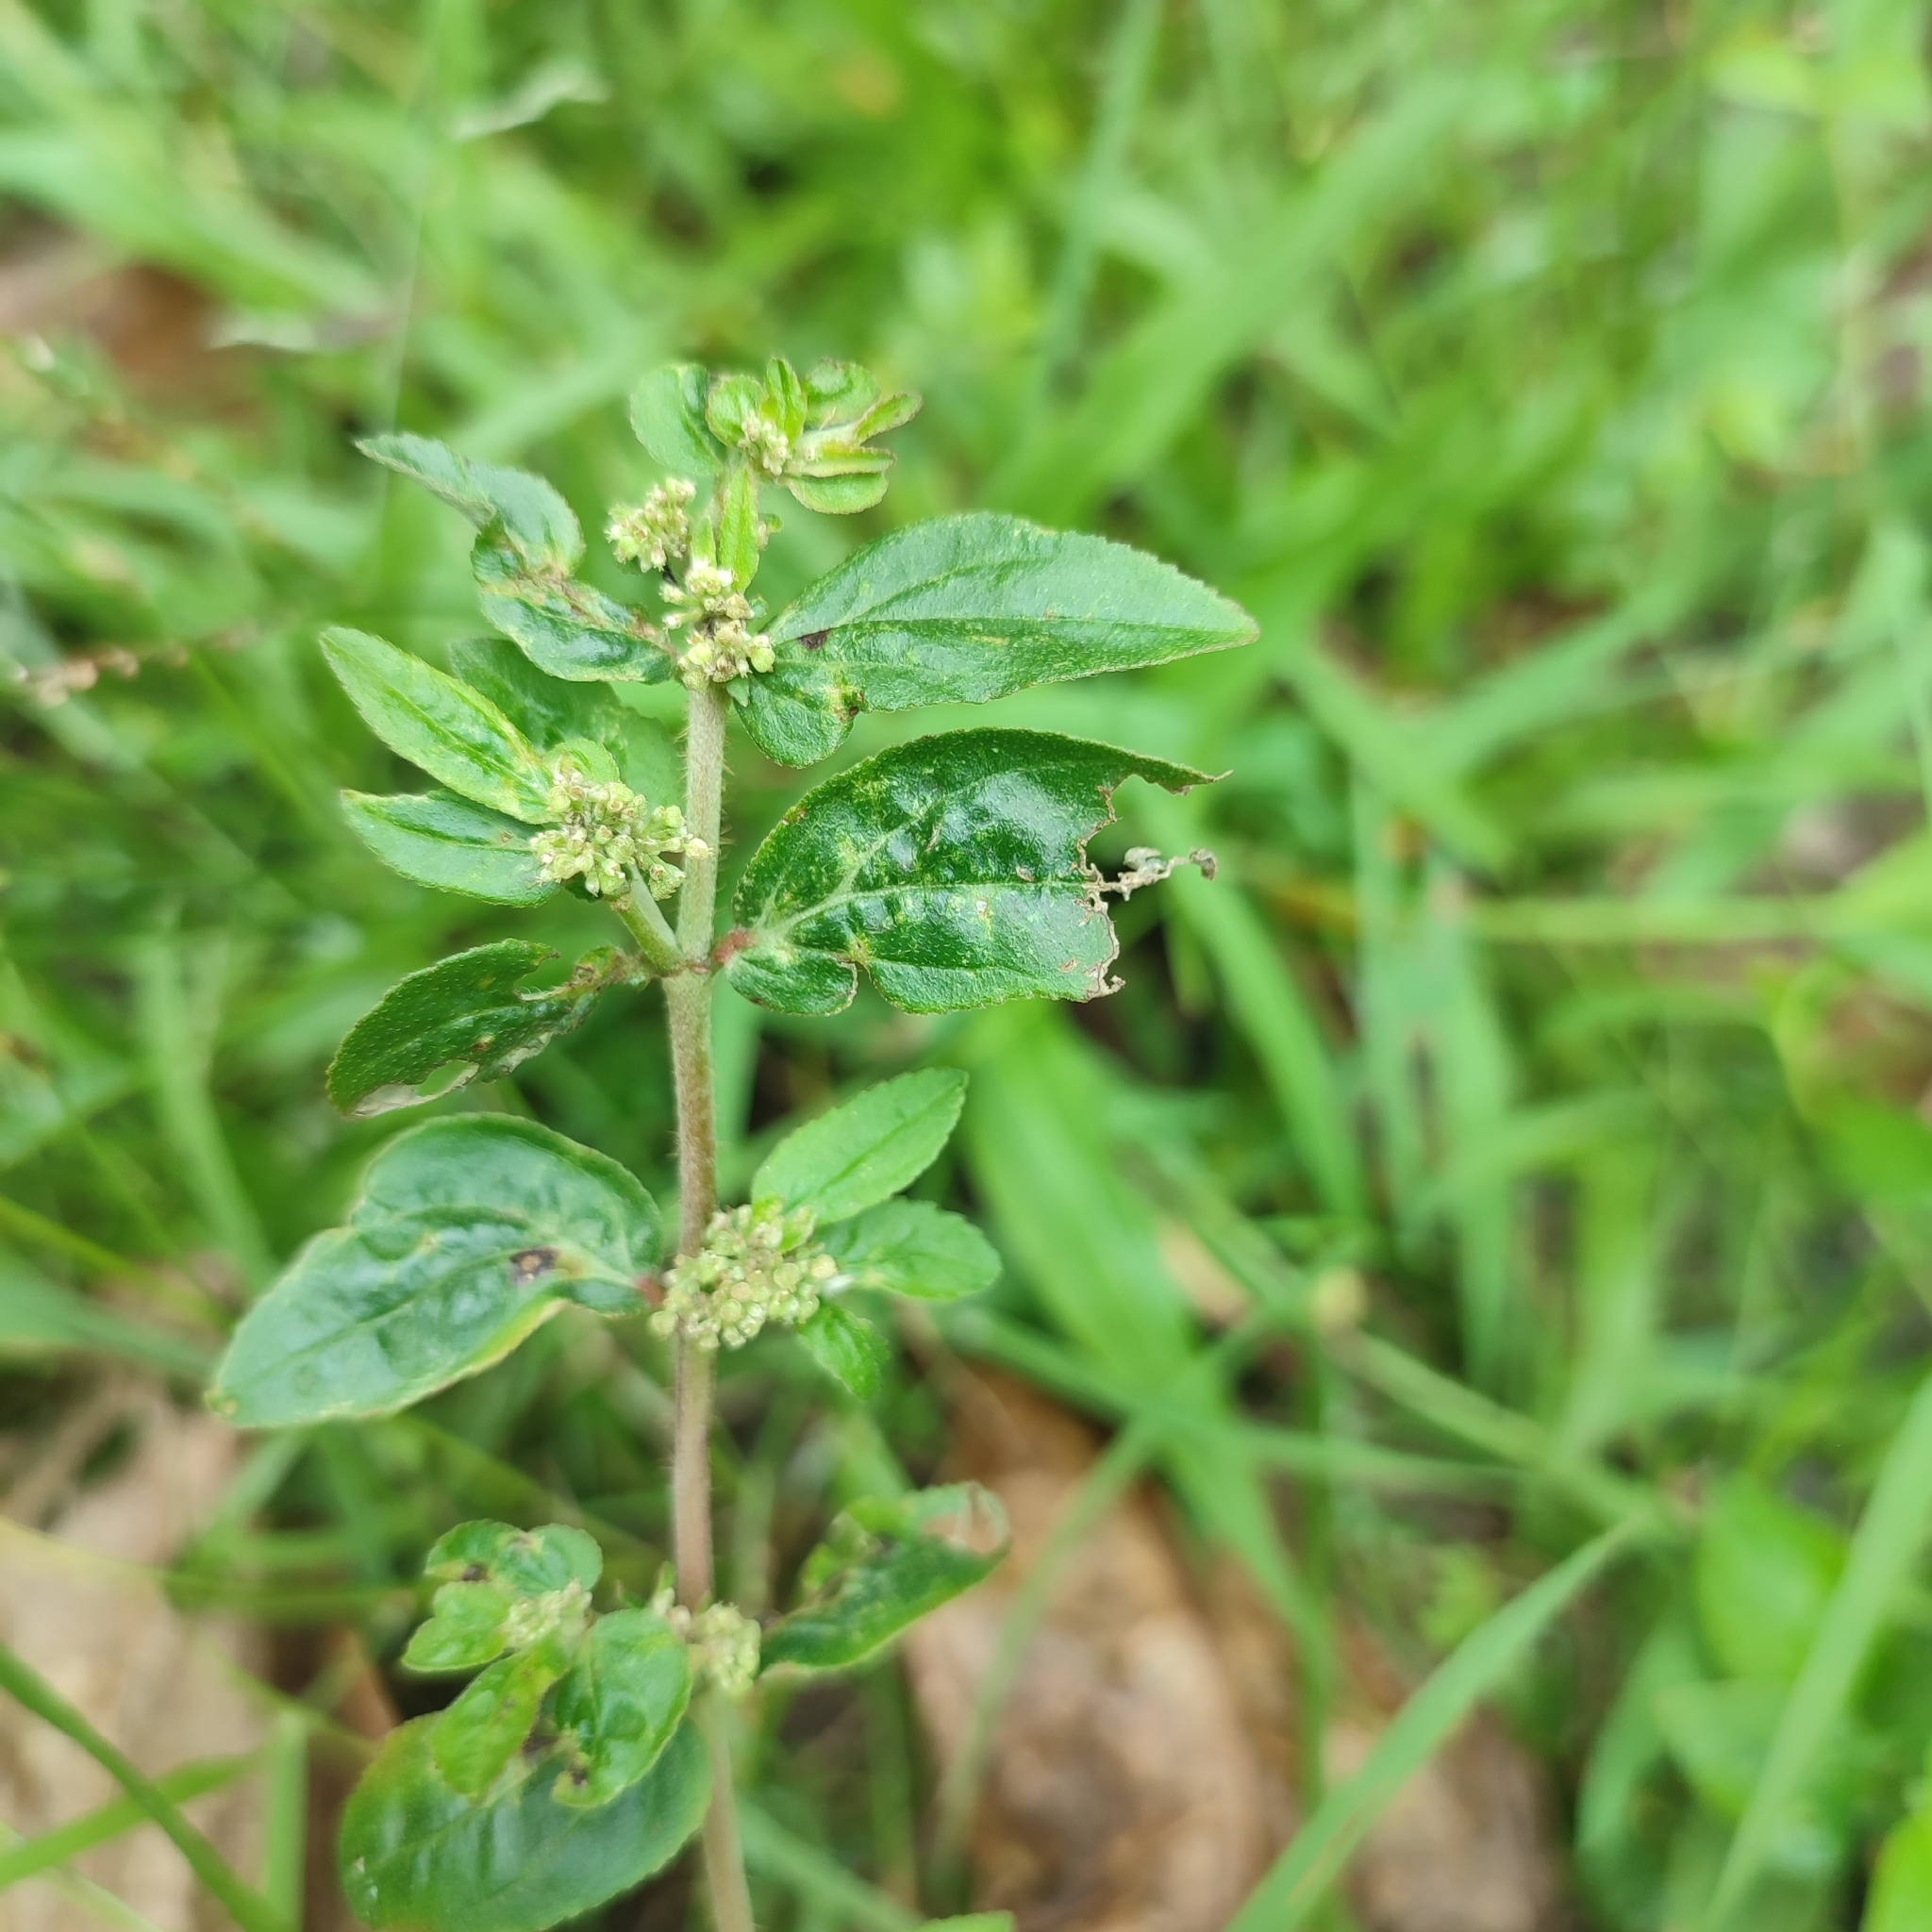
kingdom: Plantae
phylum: Tracheophyta
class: Magnoliopsida
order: Malpighiales
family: Euphorbiaceae
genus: Euphorbia
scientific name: Euphorbia hirta
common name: Pillpod sandmat
